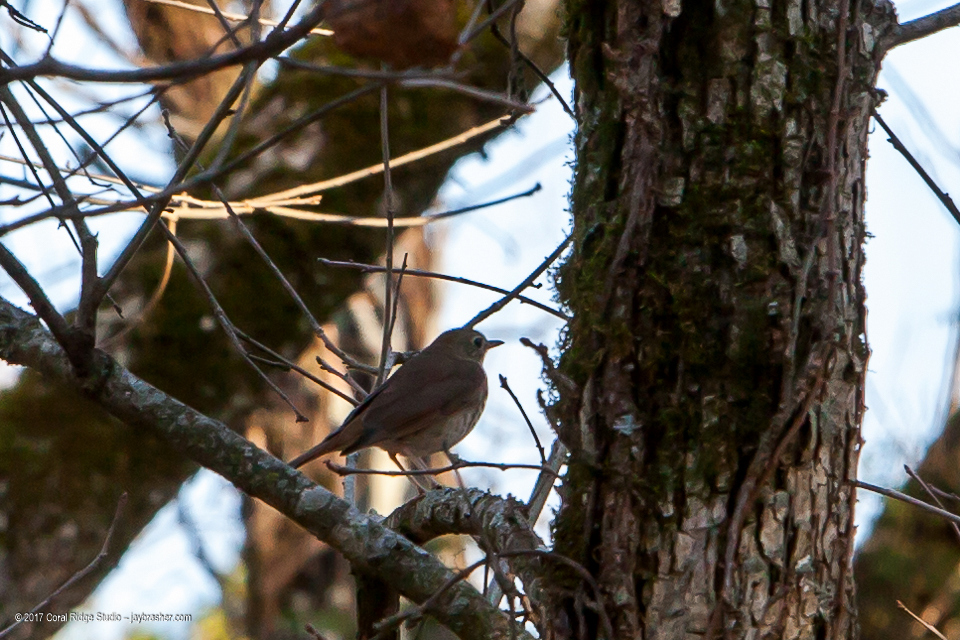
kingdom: Animalia
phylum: Chordata
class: Aves
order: Passeriformes
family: Turdidae
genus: Catharus
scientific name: Catharus guttatus
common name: Hermit thrush
